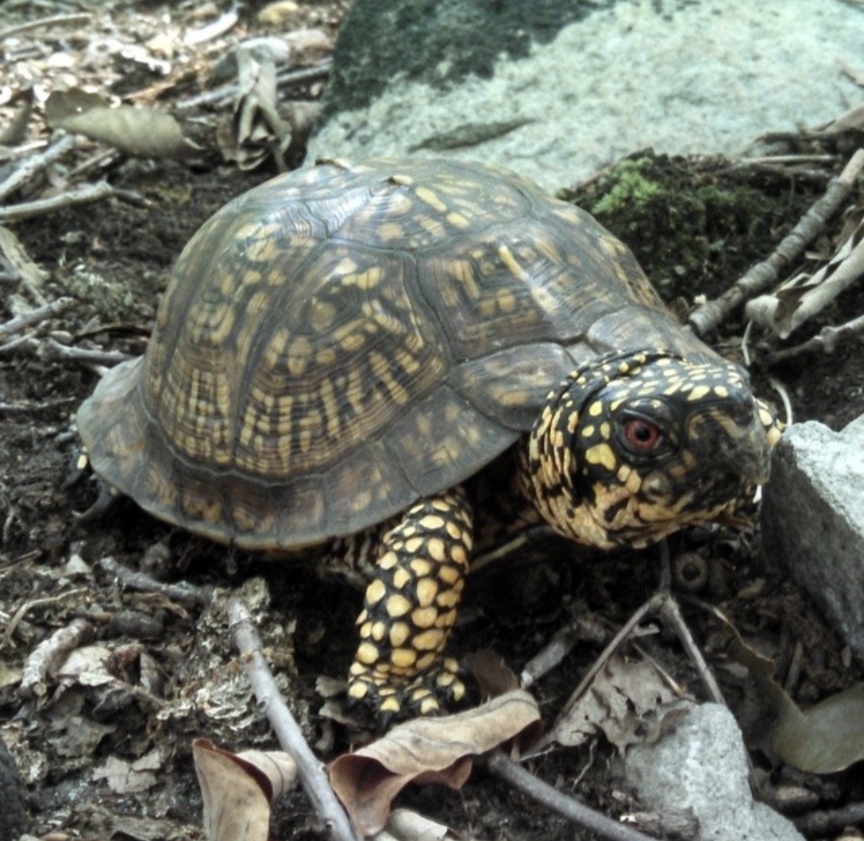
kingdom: Animalia
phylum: Chordata
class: Testudines
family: Emydidae
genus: Terrapene
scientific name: Terrapene carolina
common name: Common box turtle
